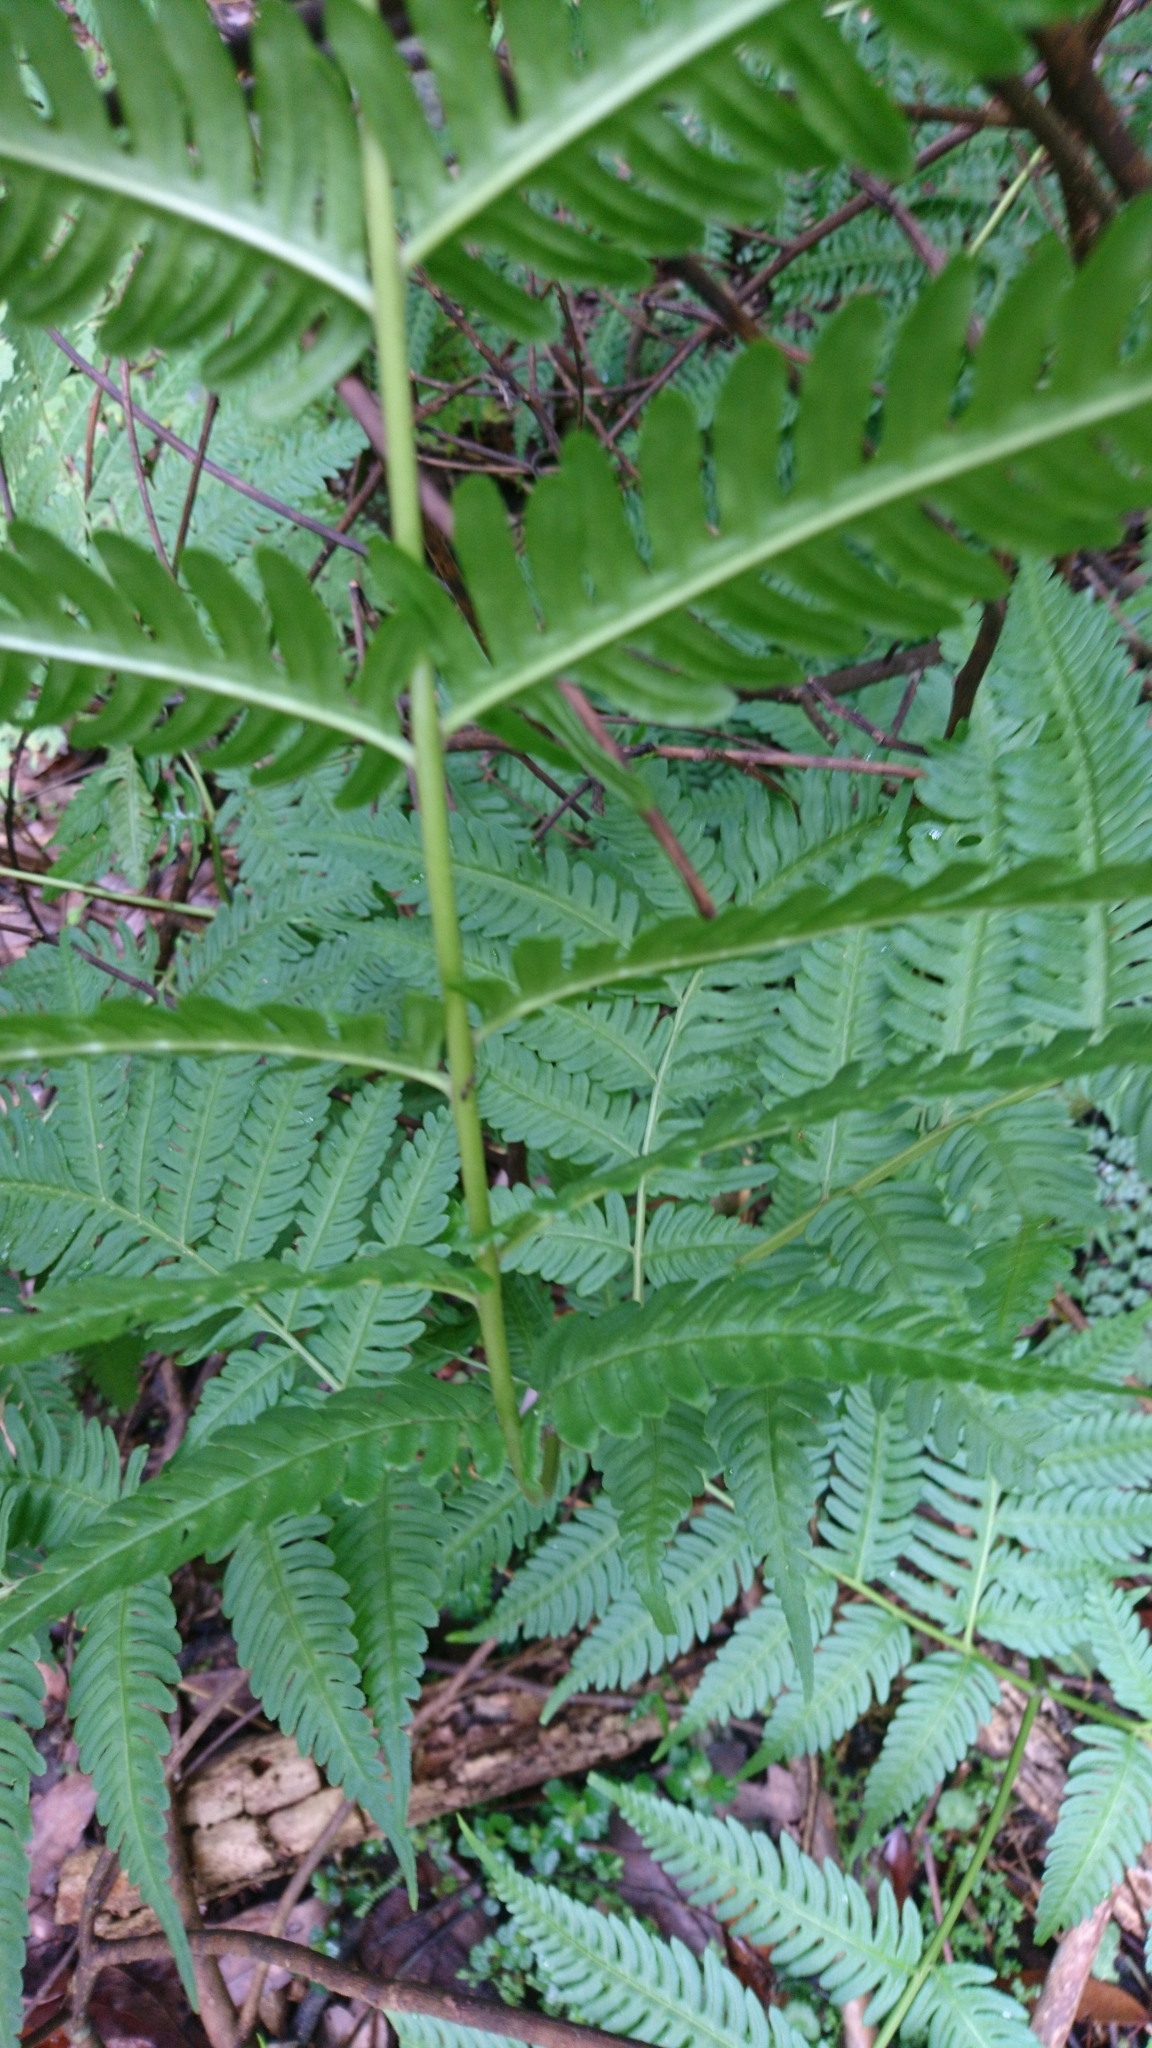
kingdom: Plantae
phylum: Tracheophyta
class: Polypodiopsida
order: Polypodiales
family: Pteridaceae
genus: Pteris
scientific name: Pteris wallichiana
